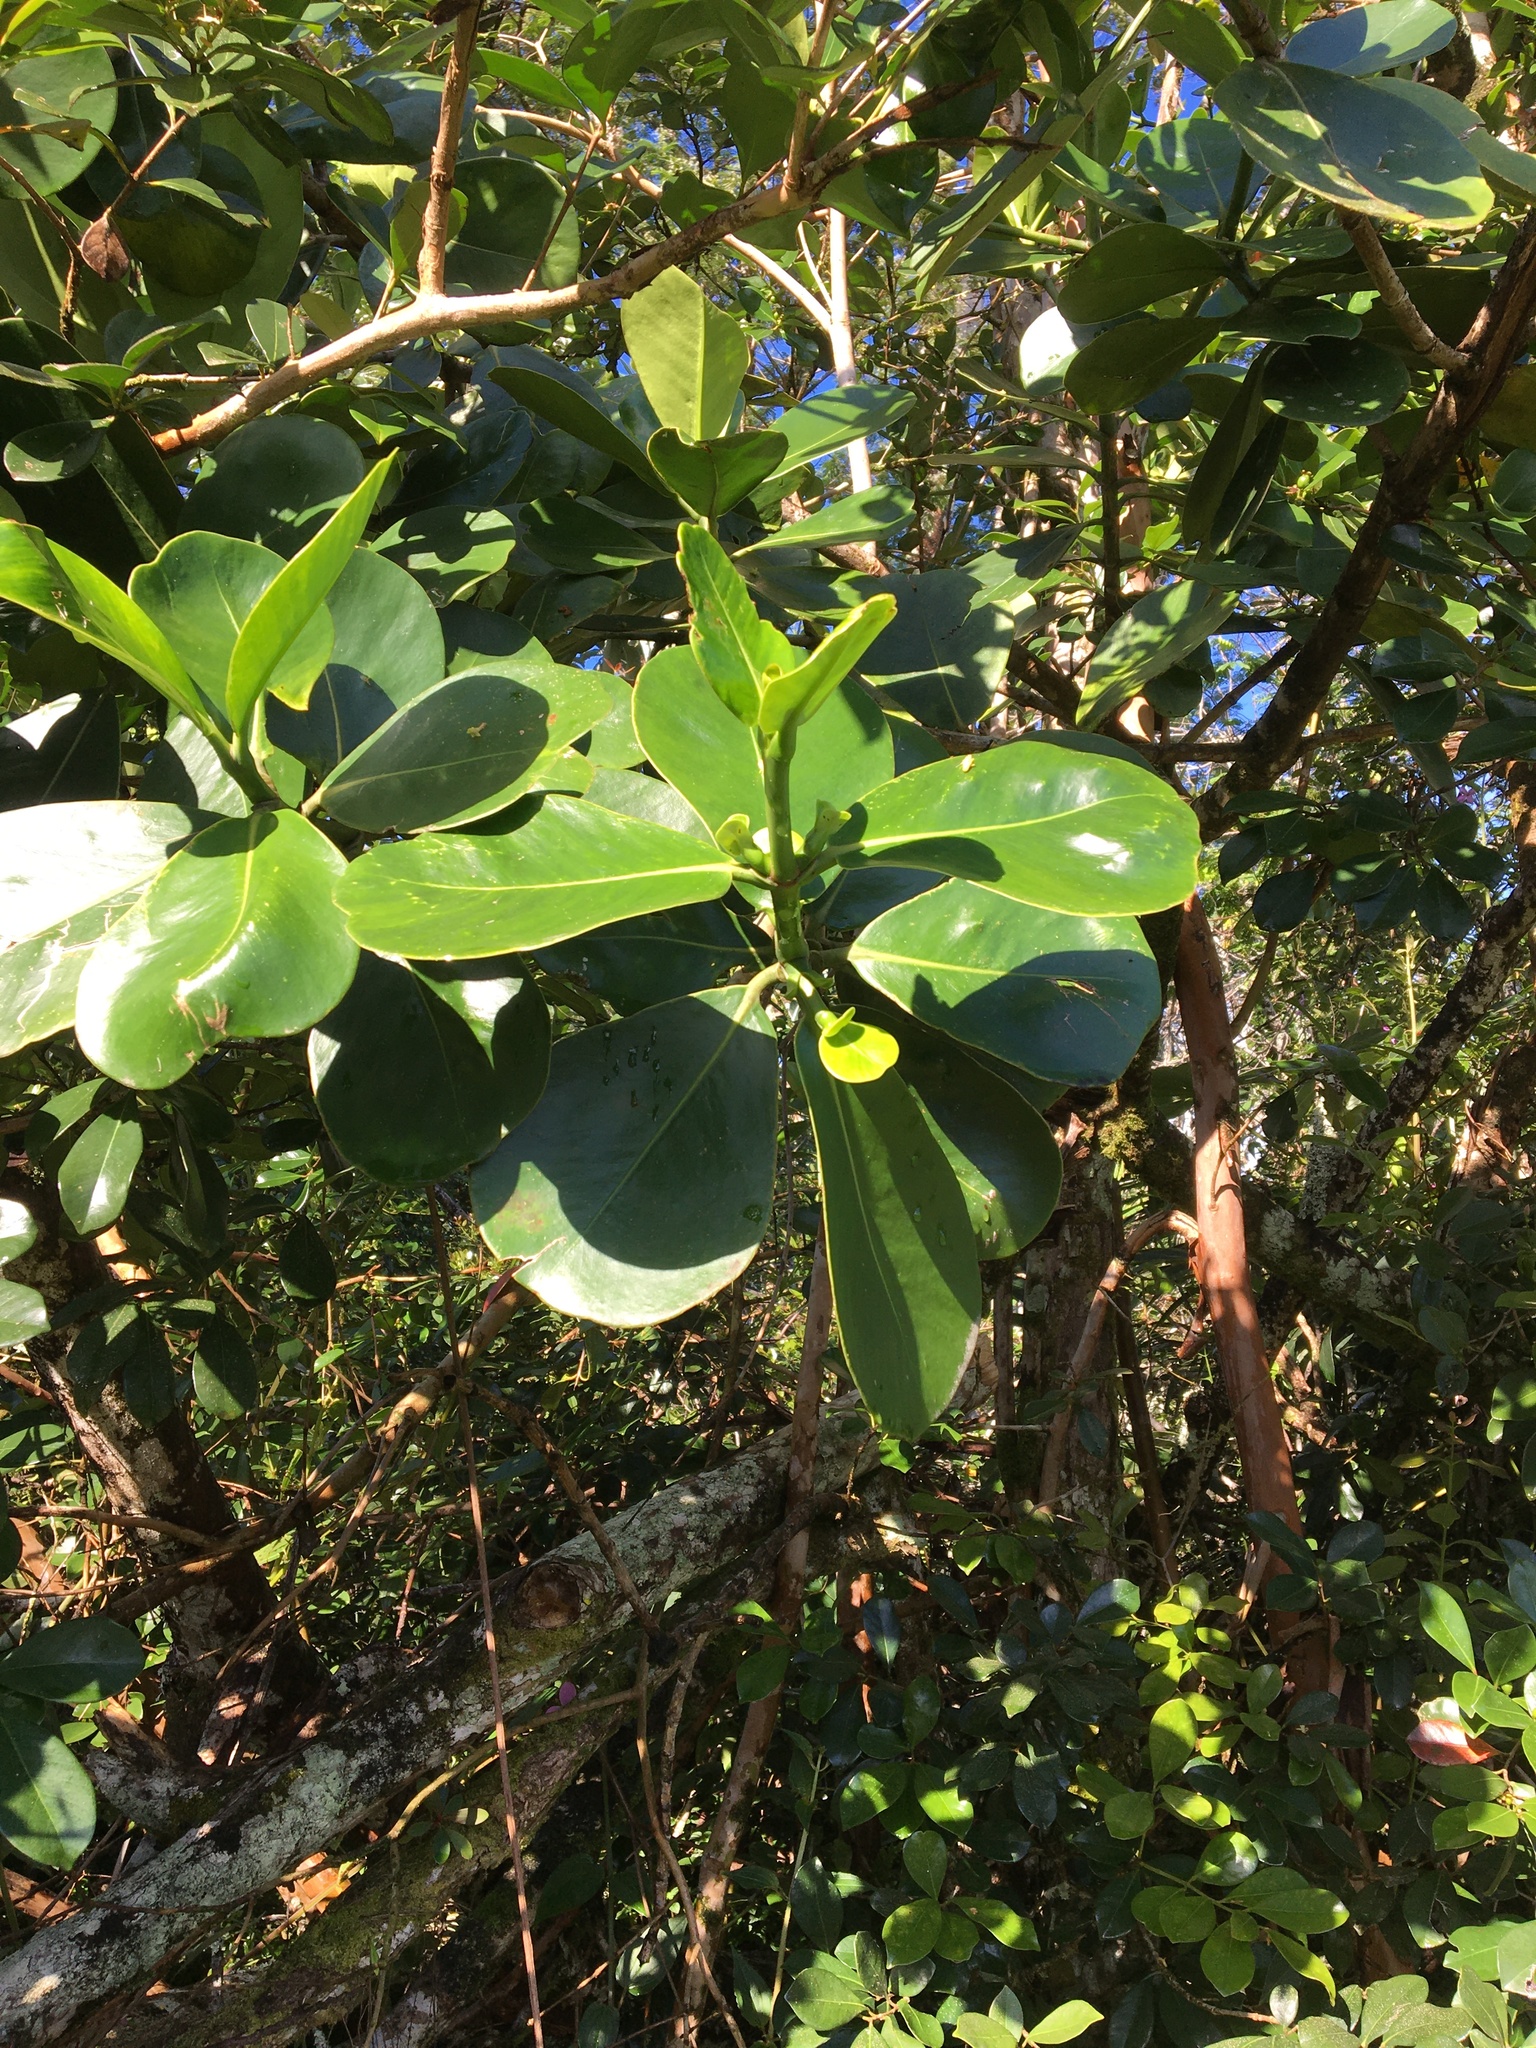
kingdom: Plantae
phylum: Tracheophyta
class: Magnoliopsida
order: Malpighiales
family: Clusiaceae
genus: Clusia
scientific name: Clusia rosea
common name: Scotch attorney
